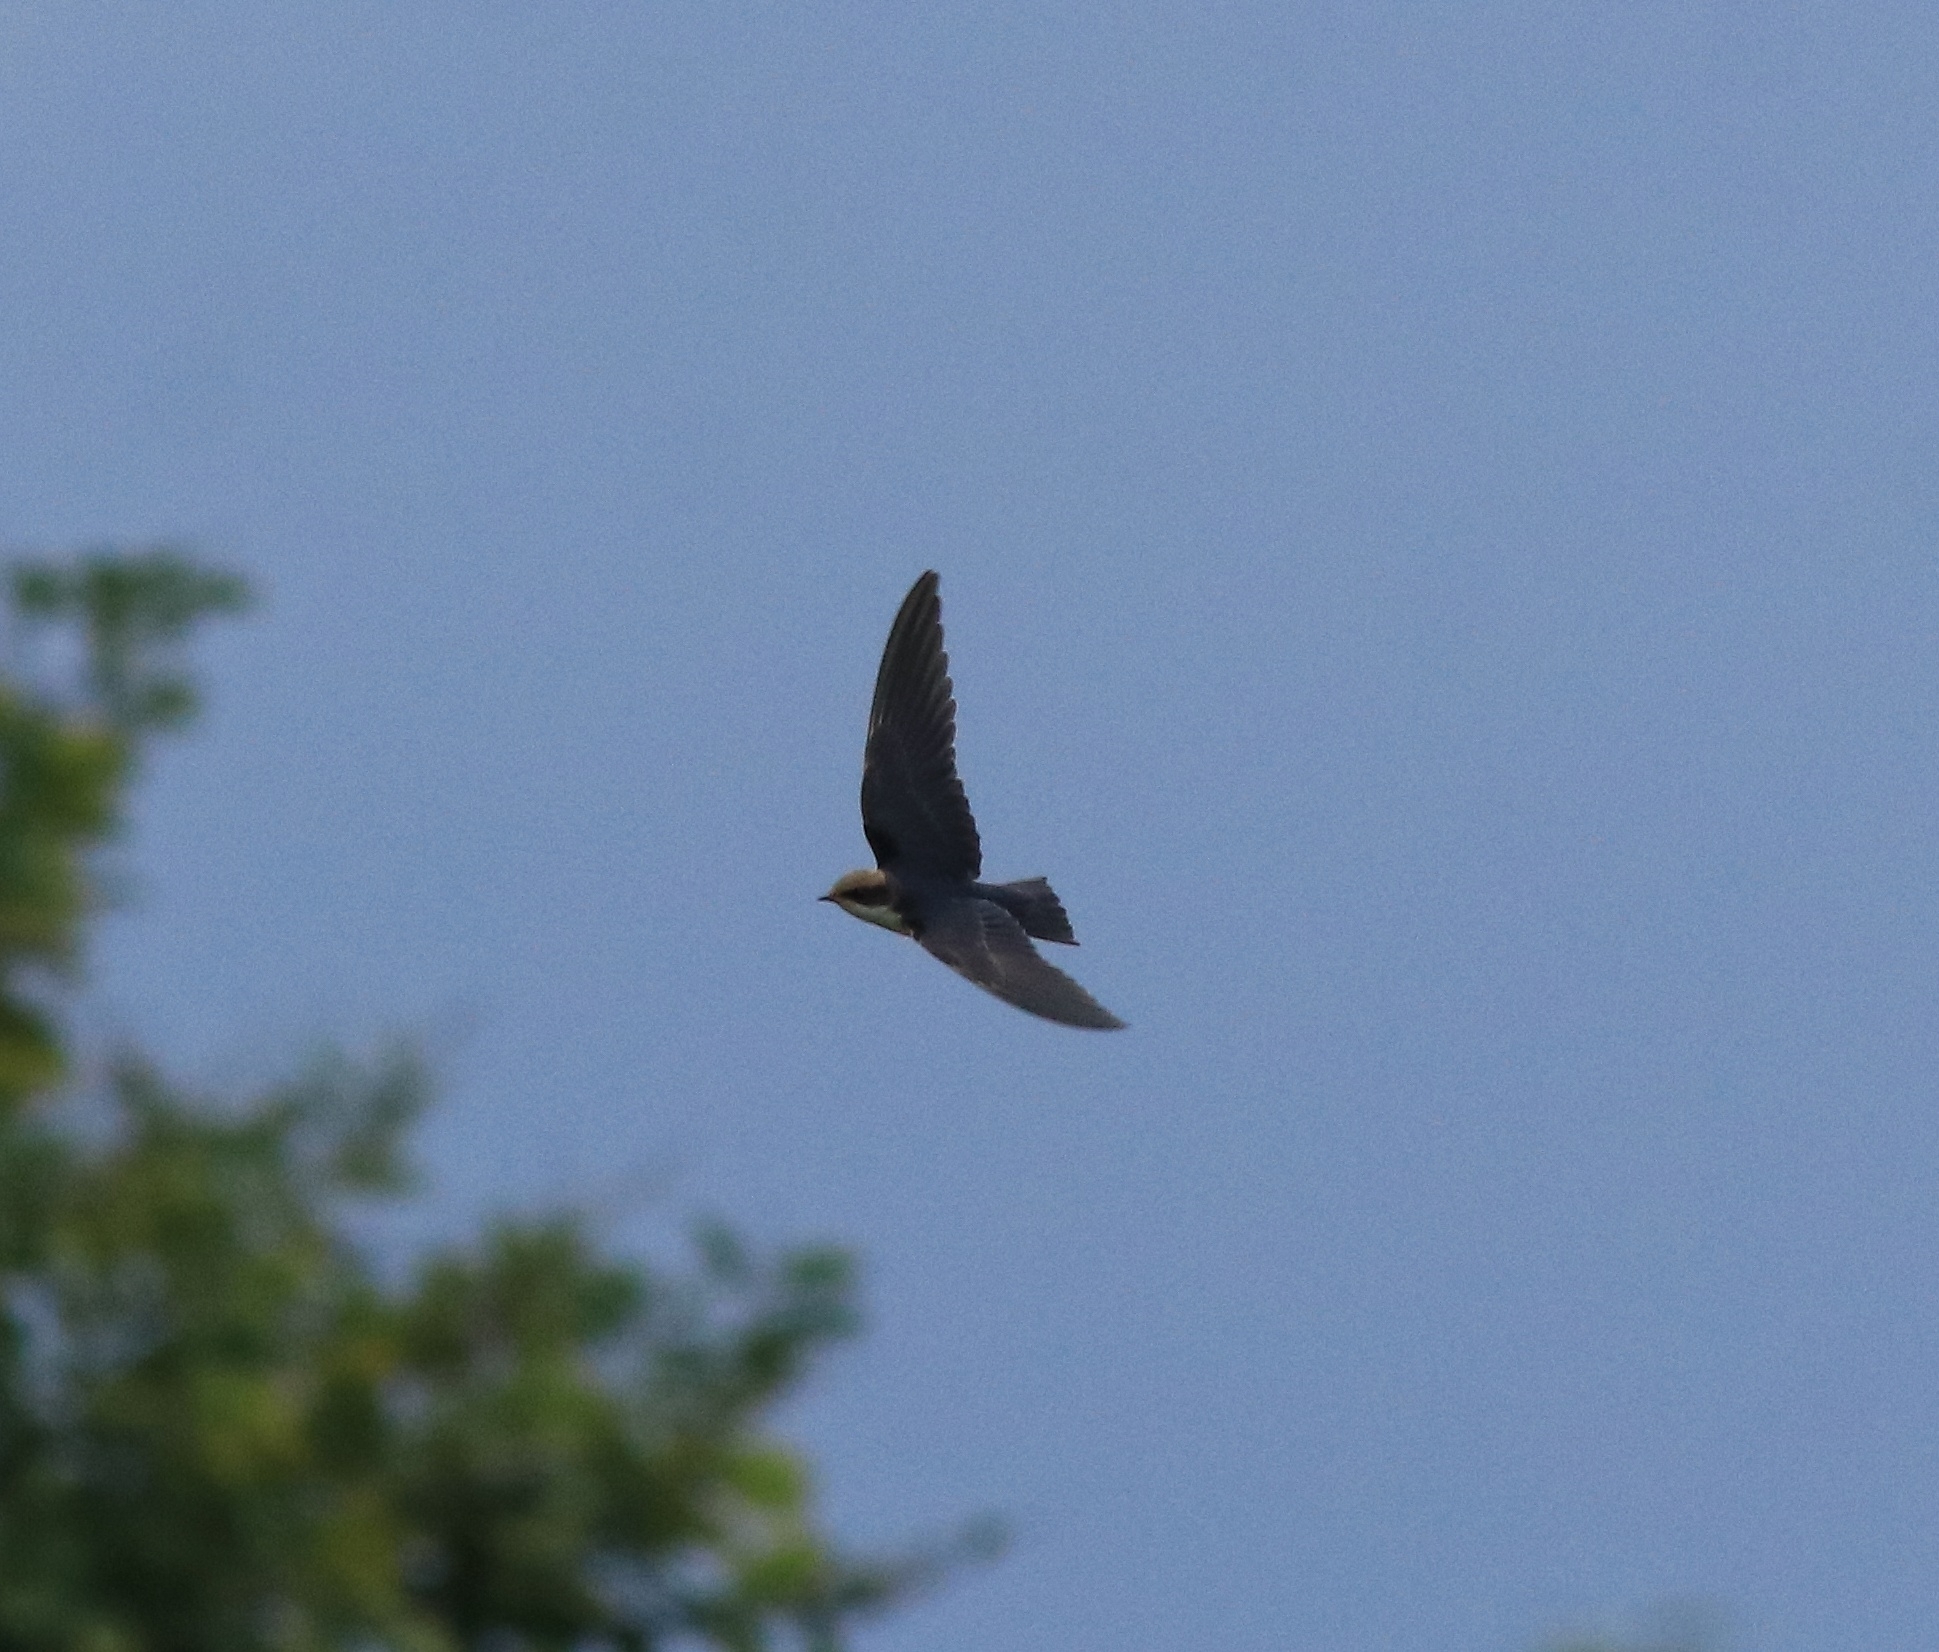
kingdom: Animalia
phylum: Chordata
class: Aves
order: Passeriformes
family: Hirundinidae
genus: Hirundo
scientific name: Hirundo smithii
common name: Wire-tailed swallow
